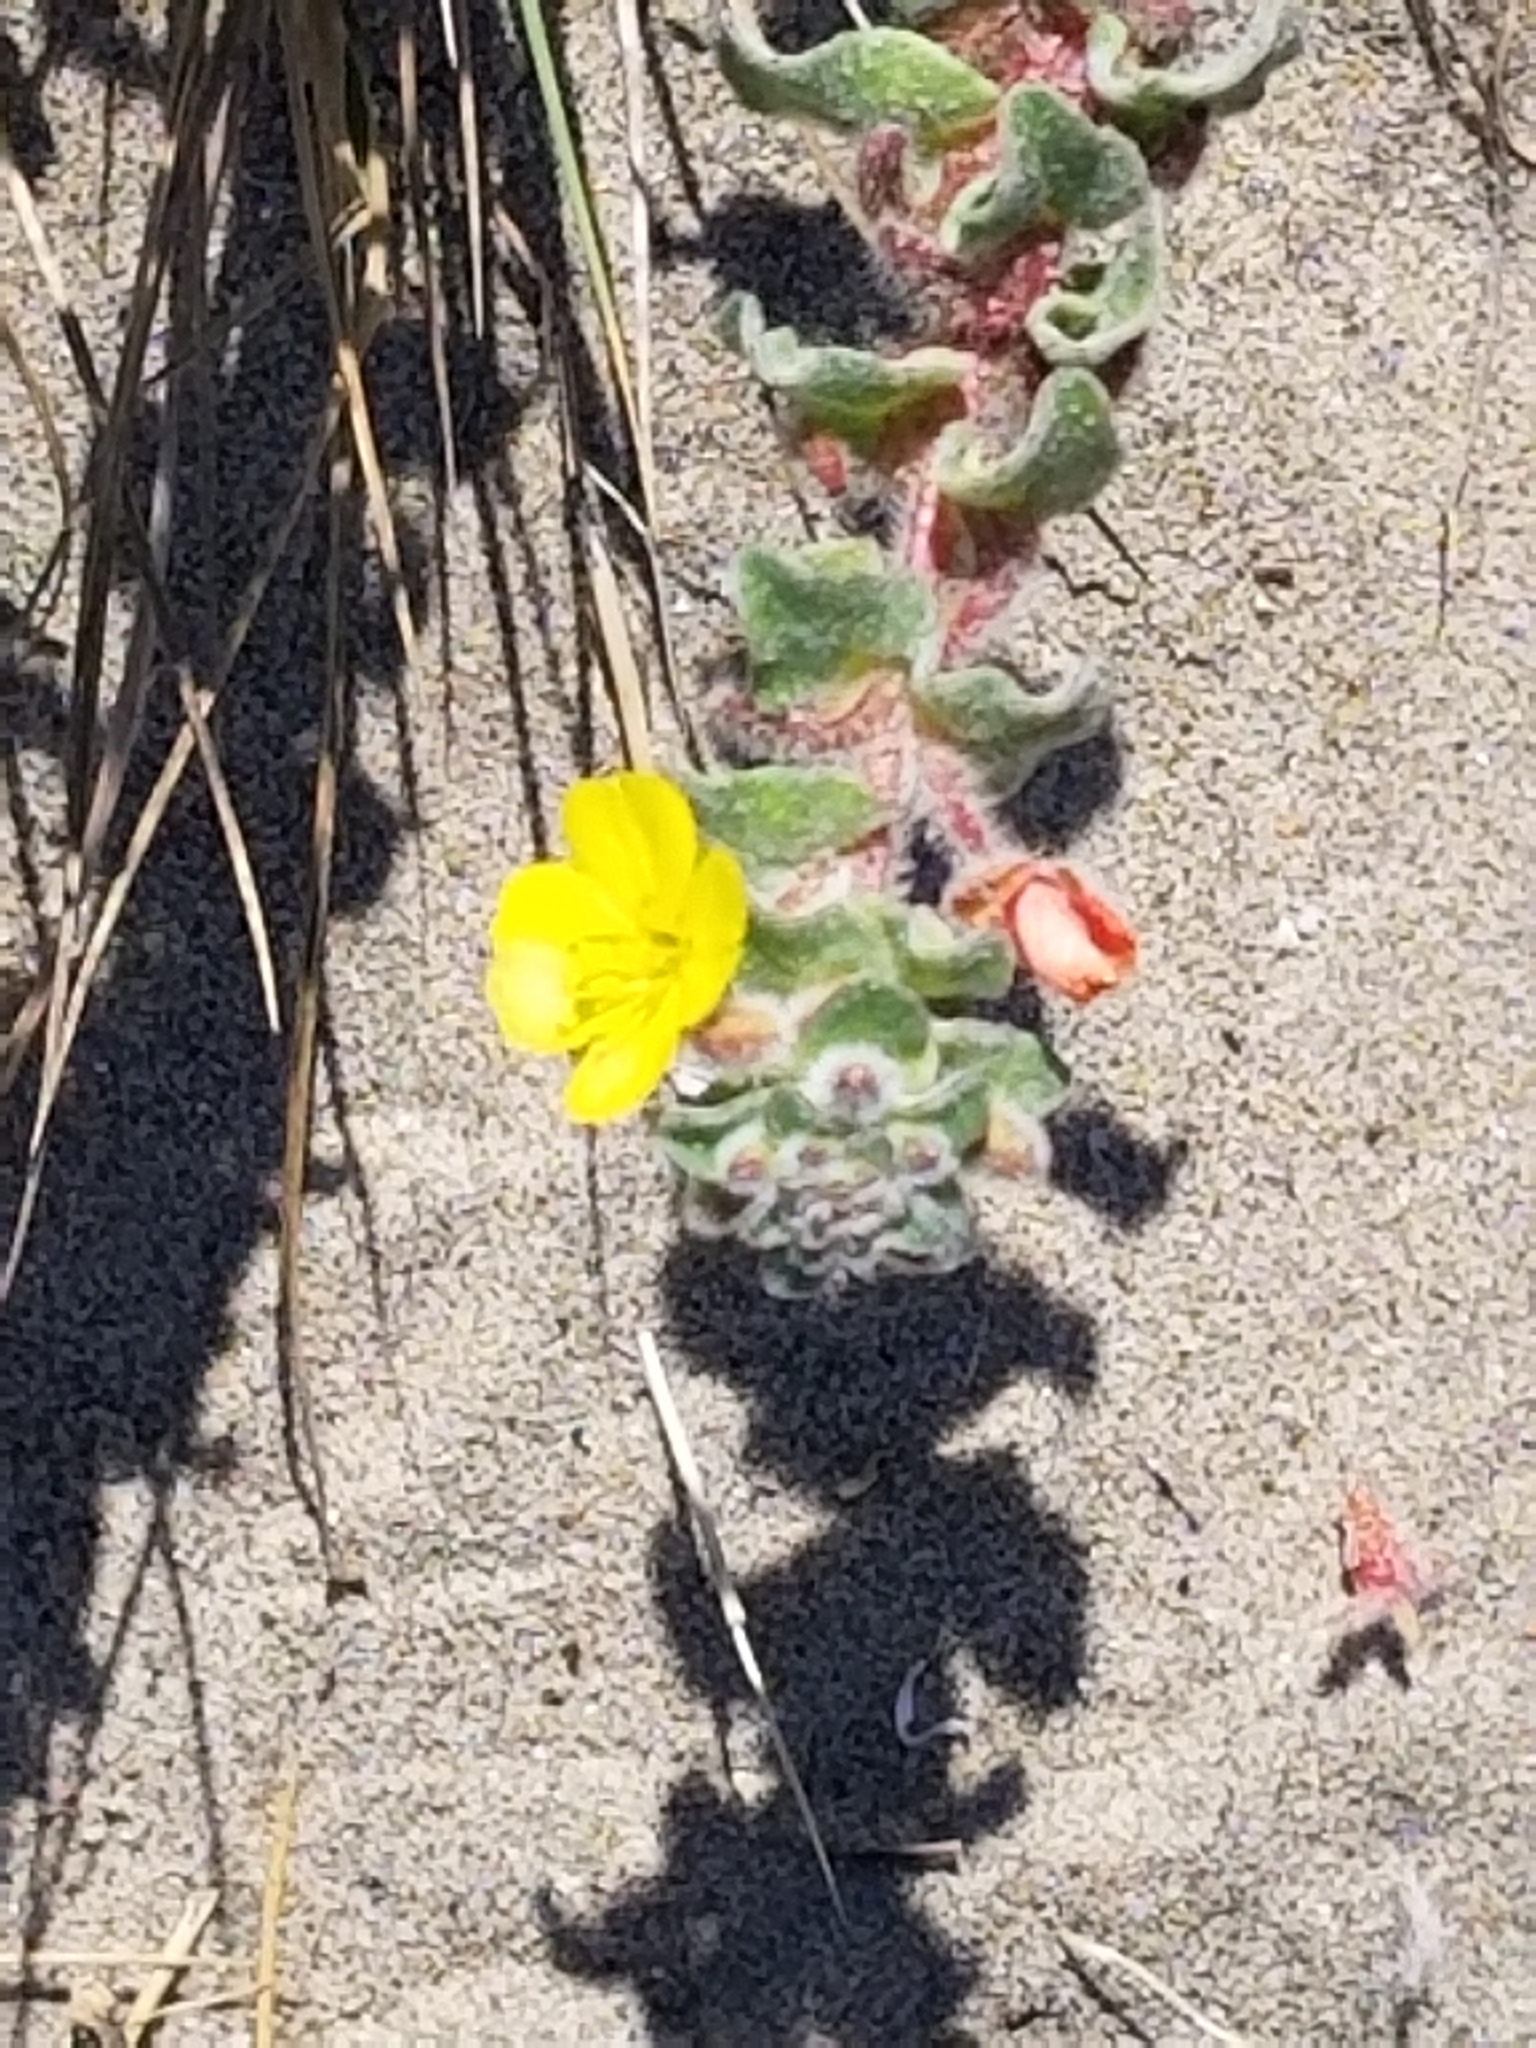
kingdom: Plantae
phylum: Tracheophyta
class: Magnoliopsida
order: Myrtales
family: Onagraceae
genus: Camissoniopsis
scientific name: Camissoniopsis cheiranthifolia
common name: Beach suncup
